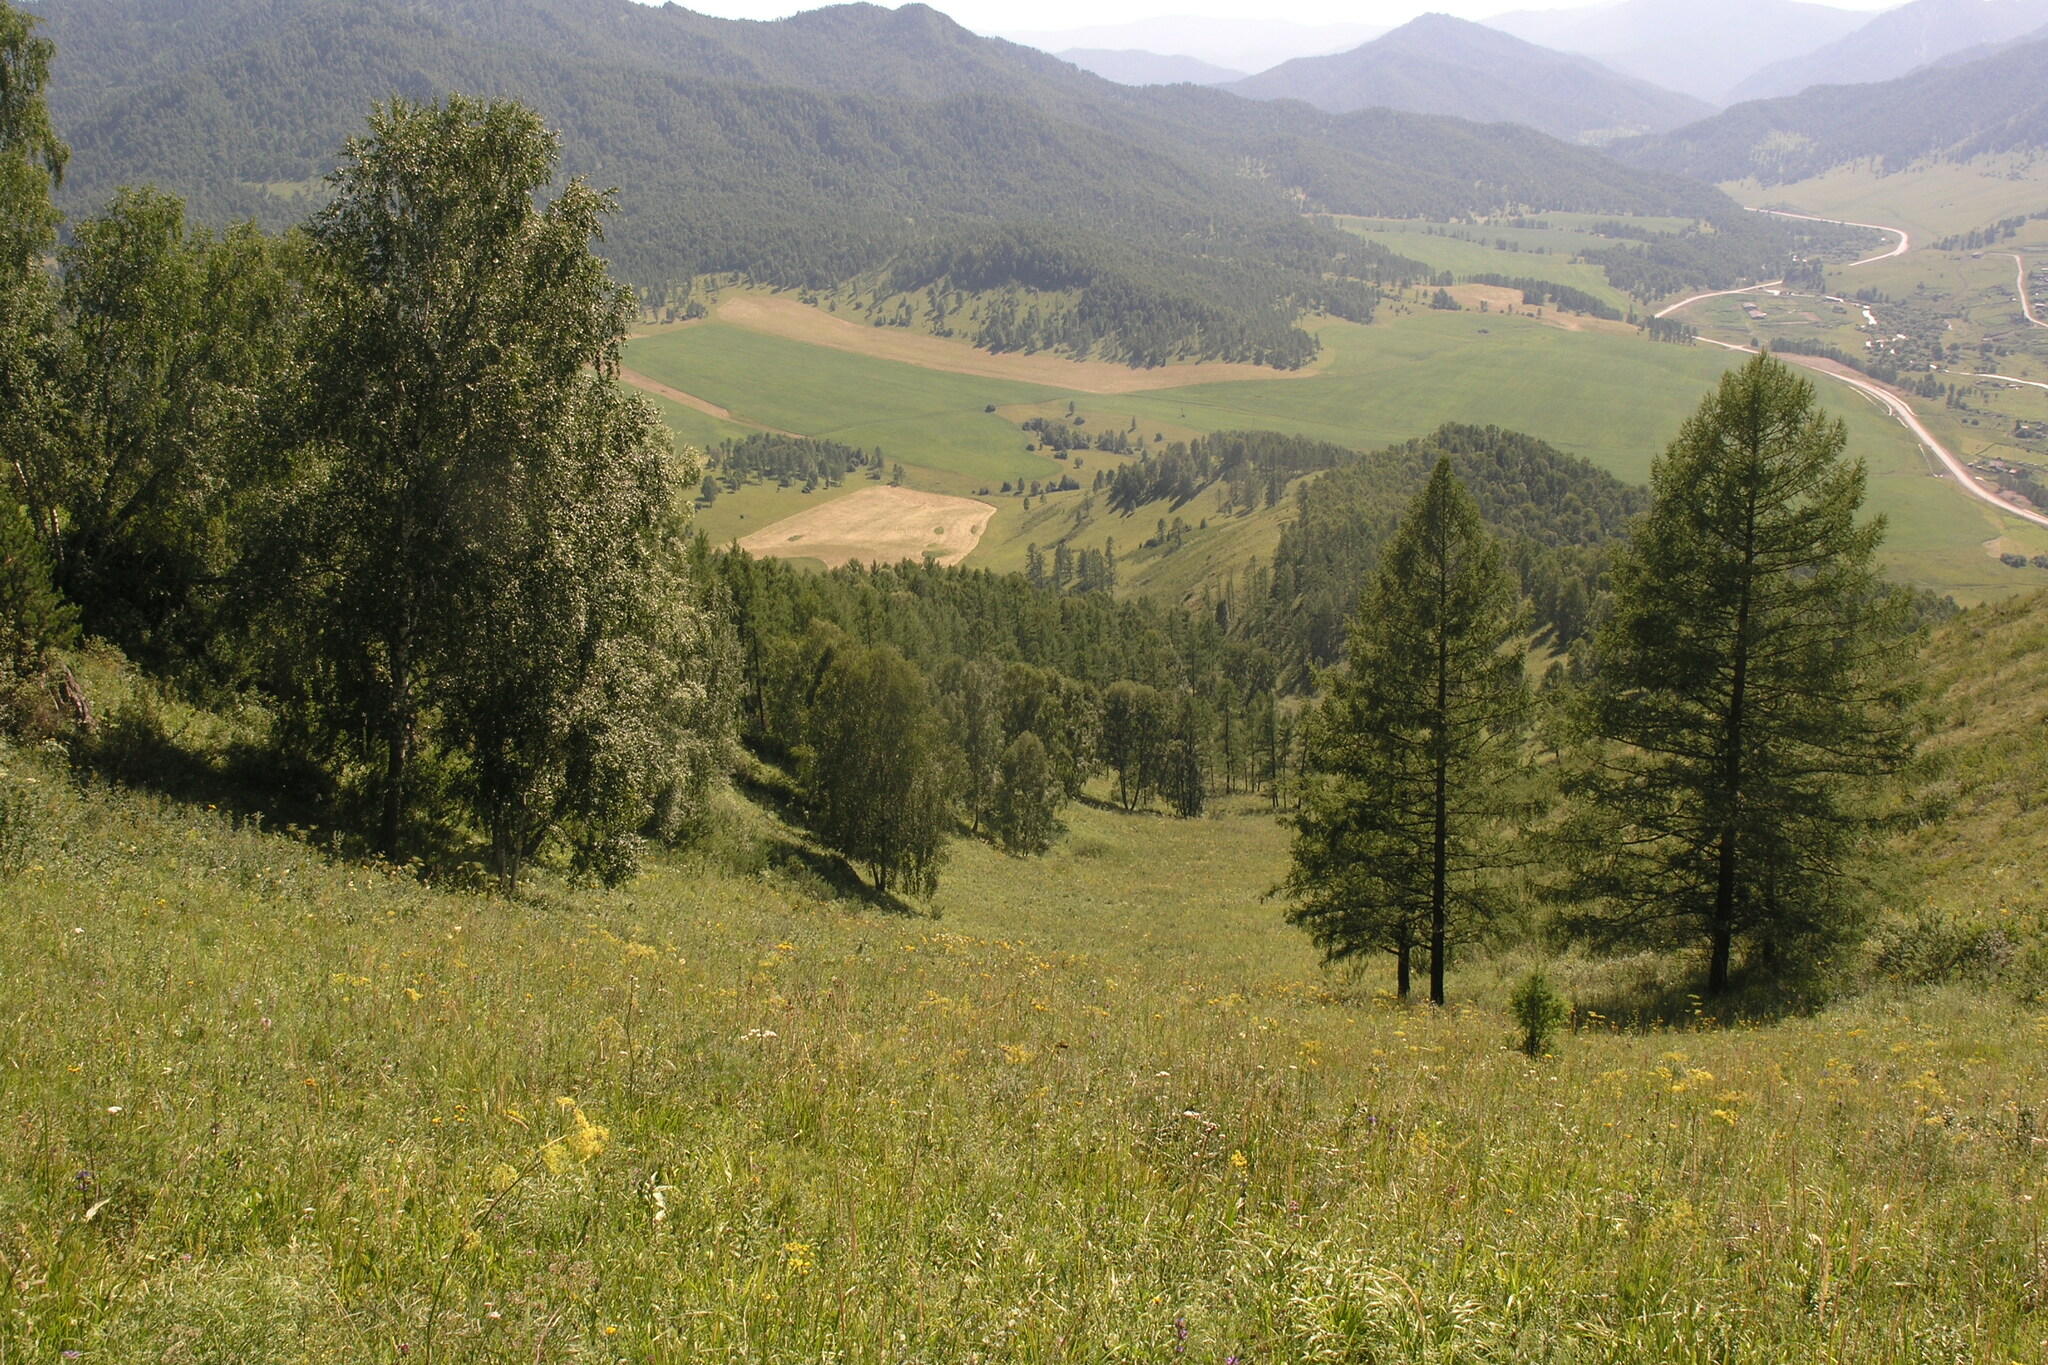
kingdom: Plantae
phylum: Tracheophyta
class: Pinopsida
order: Pinales
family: Pinaceae
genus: Larix
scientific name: Larix sibirica
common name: Siberian larch
